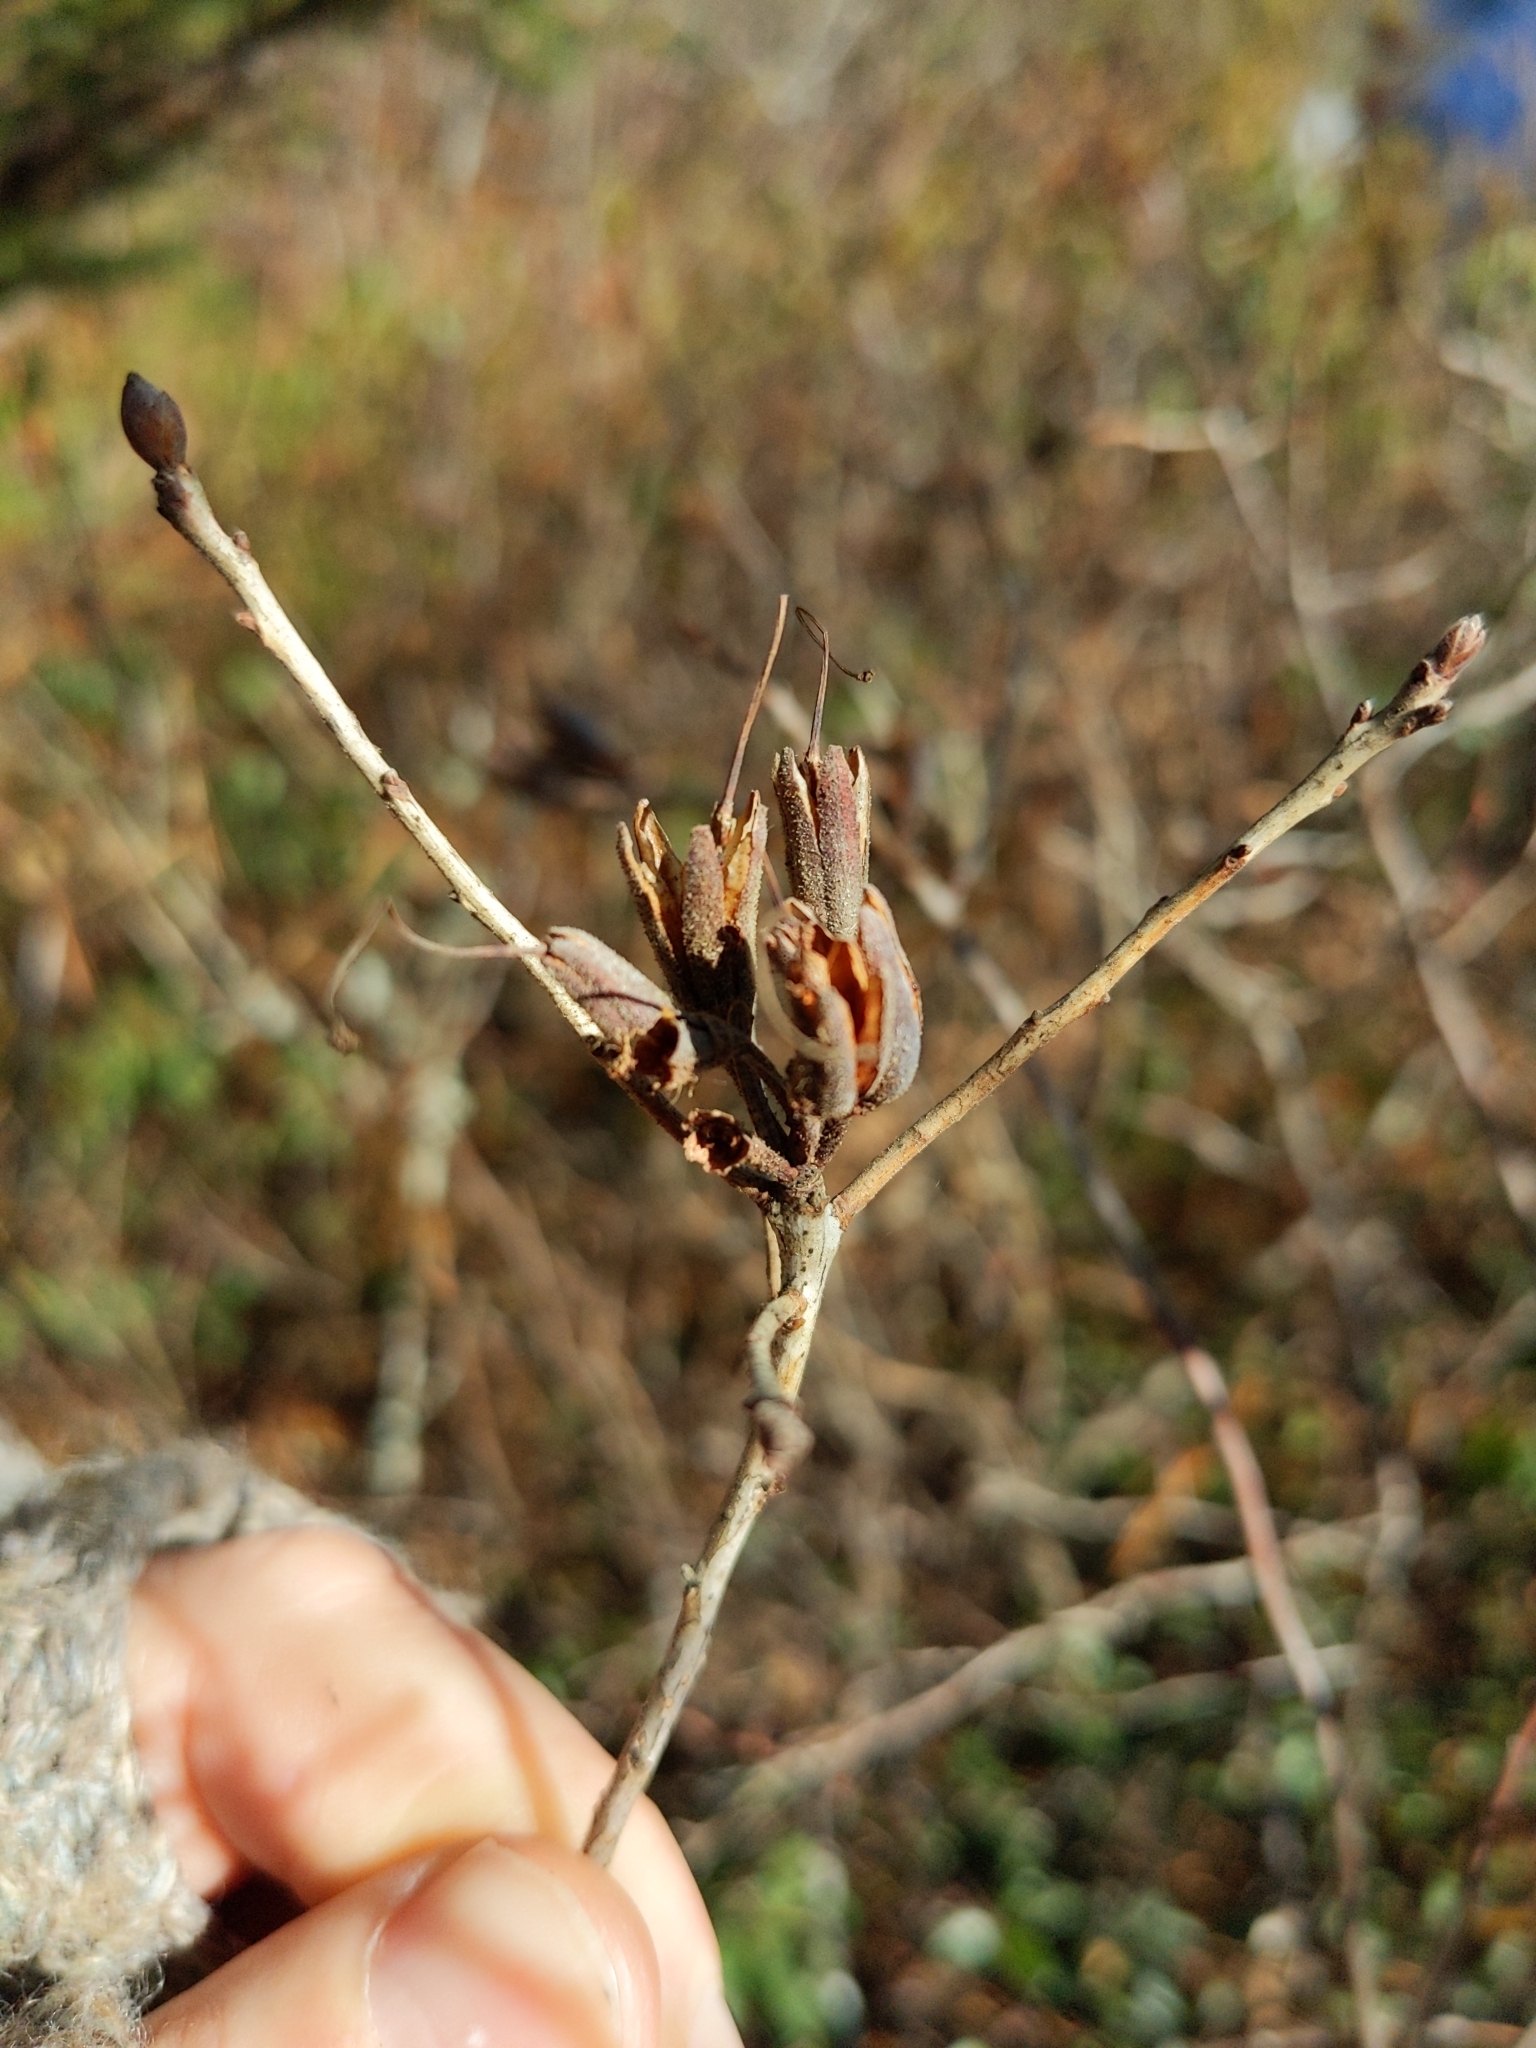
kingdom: Plantae
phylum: Tracheophyta
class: Magnoliopsida
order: Ericales
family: Ericaceae
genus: Rhododendron
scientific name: Rhododendron canadense
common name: Rhodora
